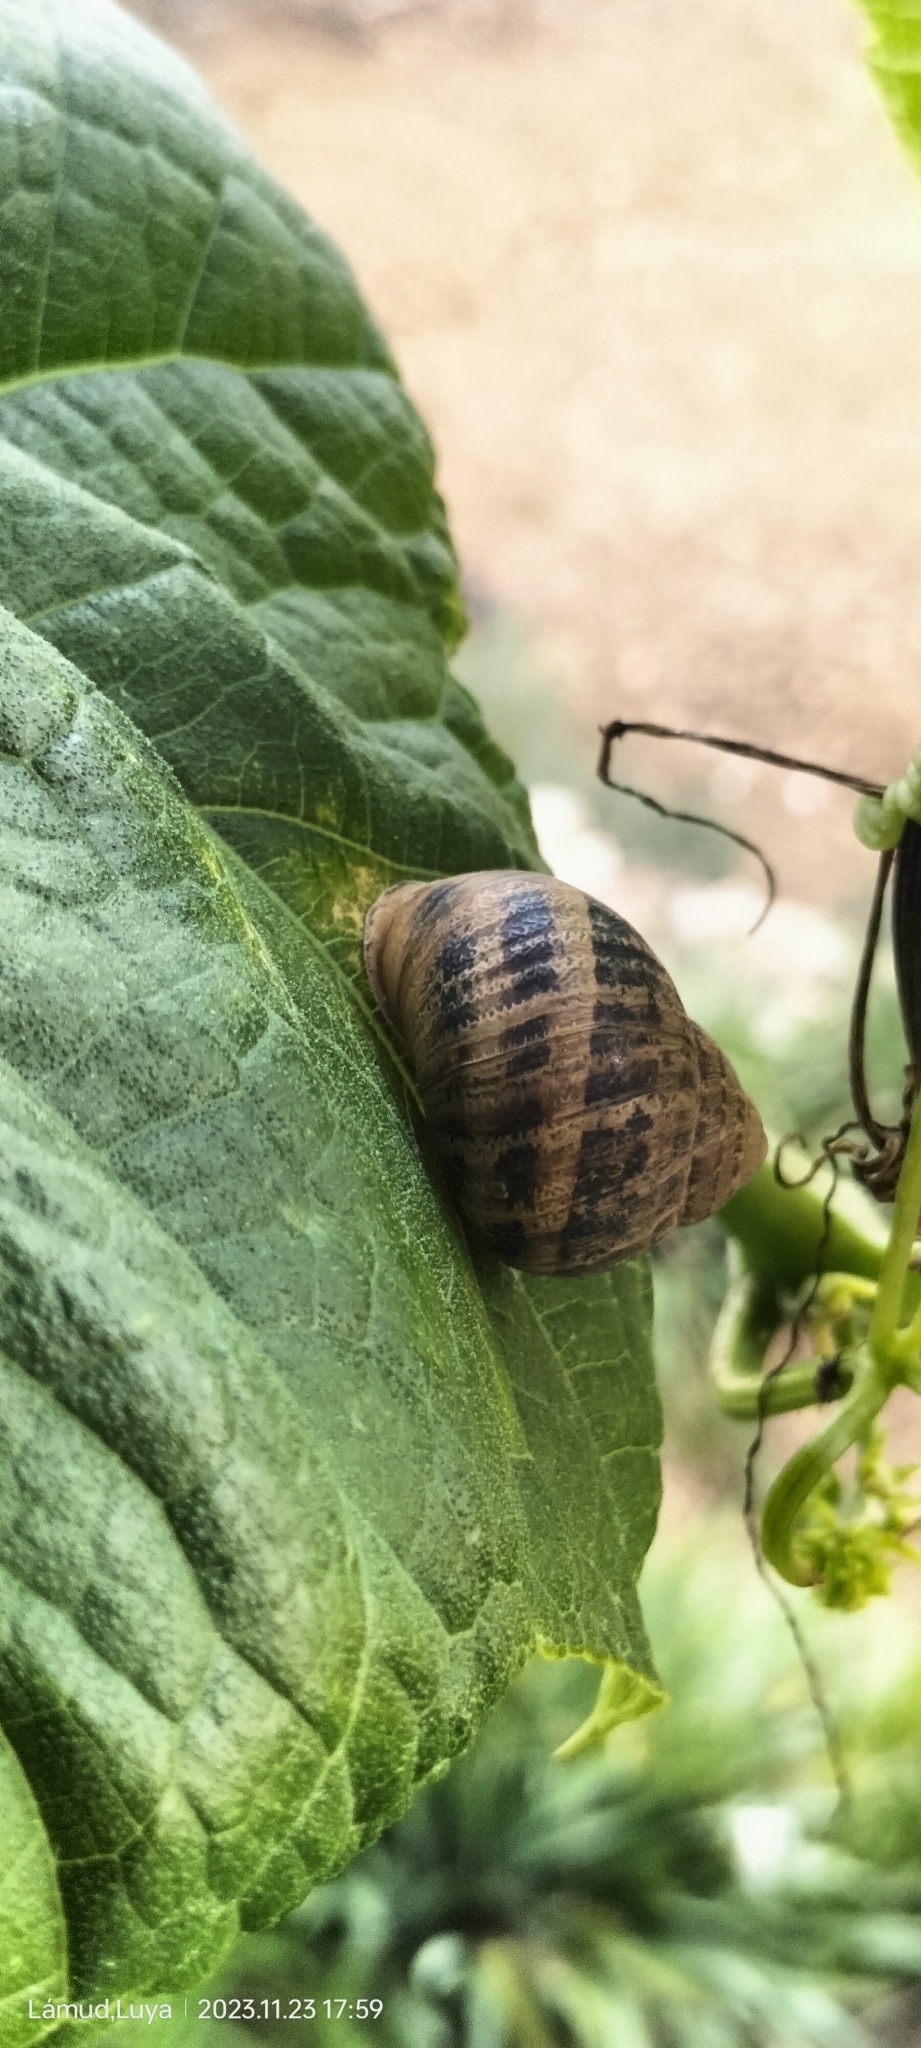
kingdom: Animalia
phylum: Mollusca
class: Gastropoda
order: Stylommatophora
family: Helicidae
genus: Cornu
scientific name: Cornu aspersum
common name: Brown garden snail
